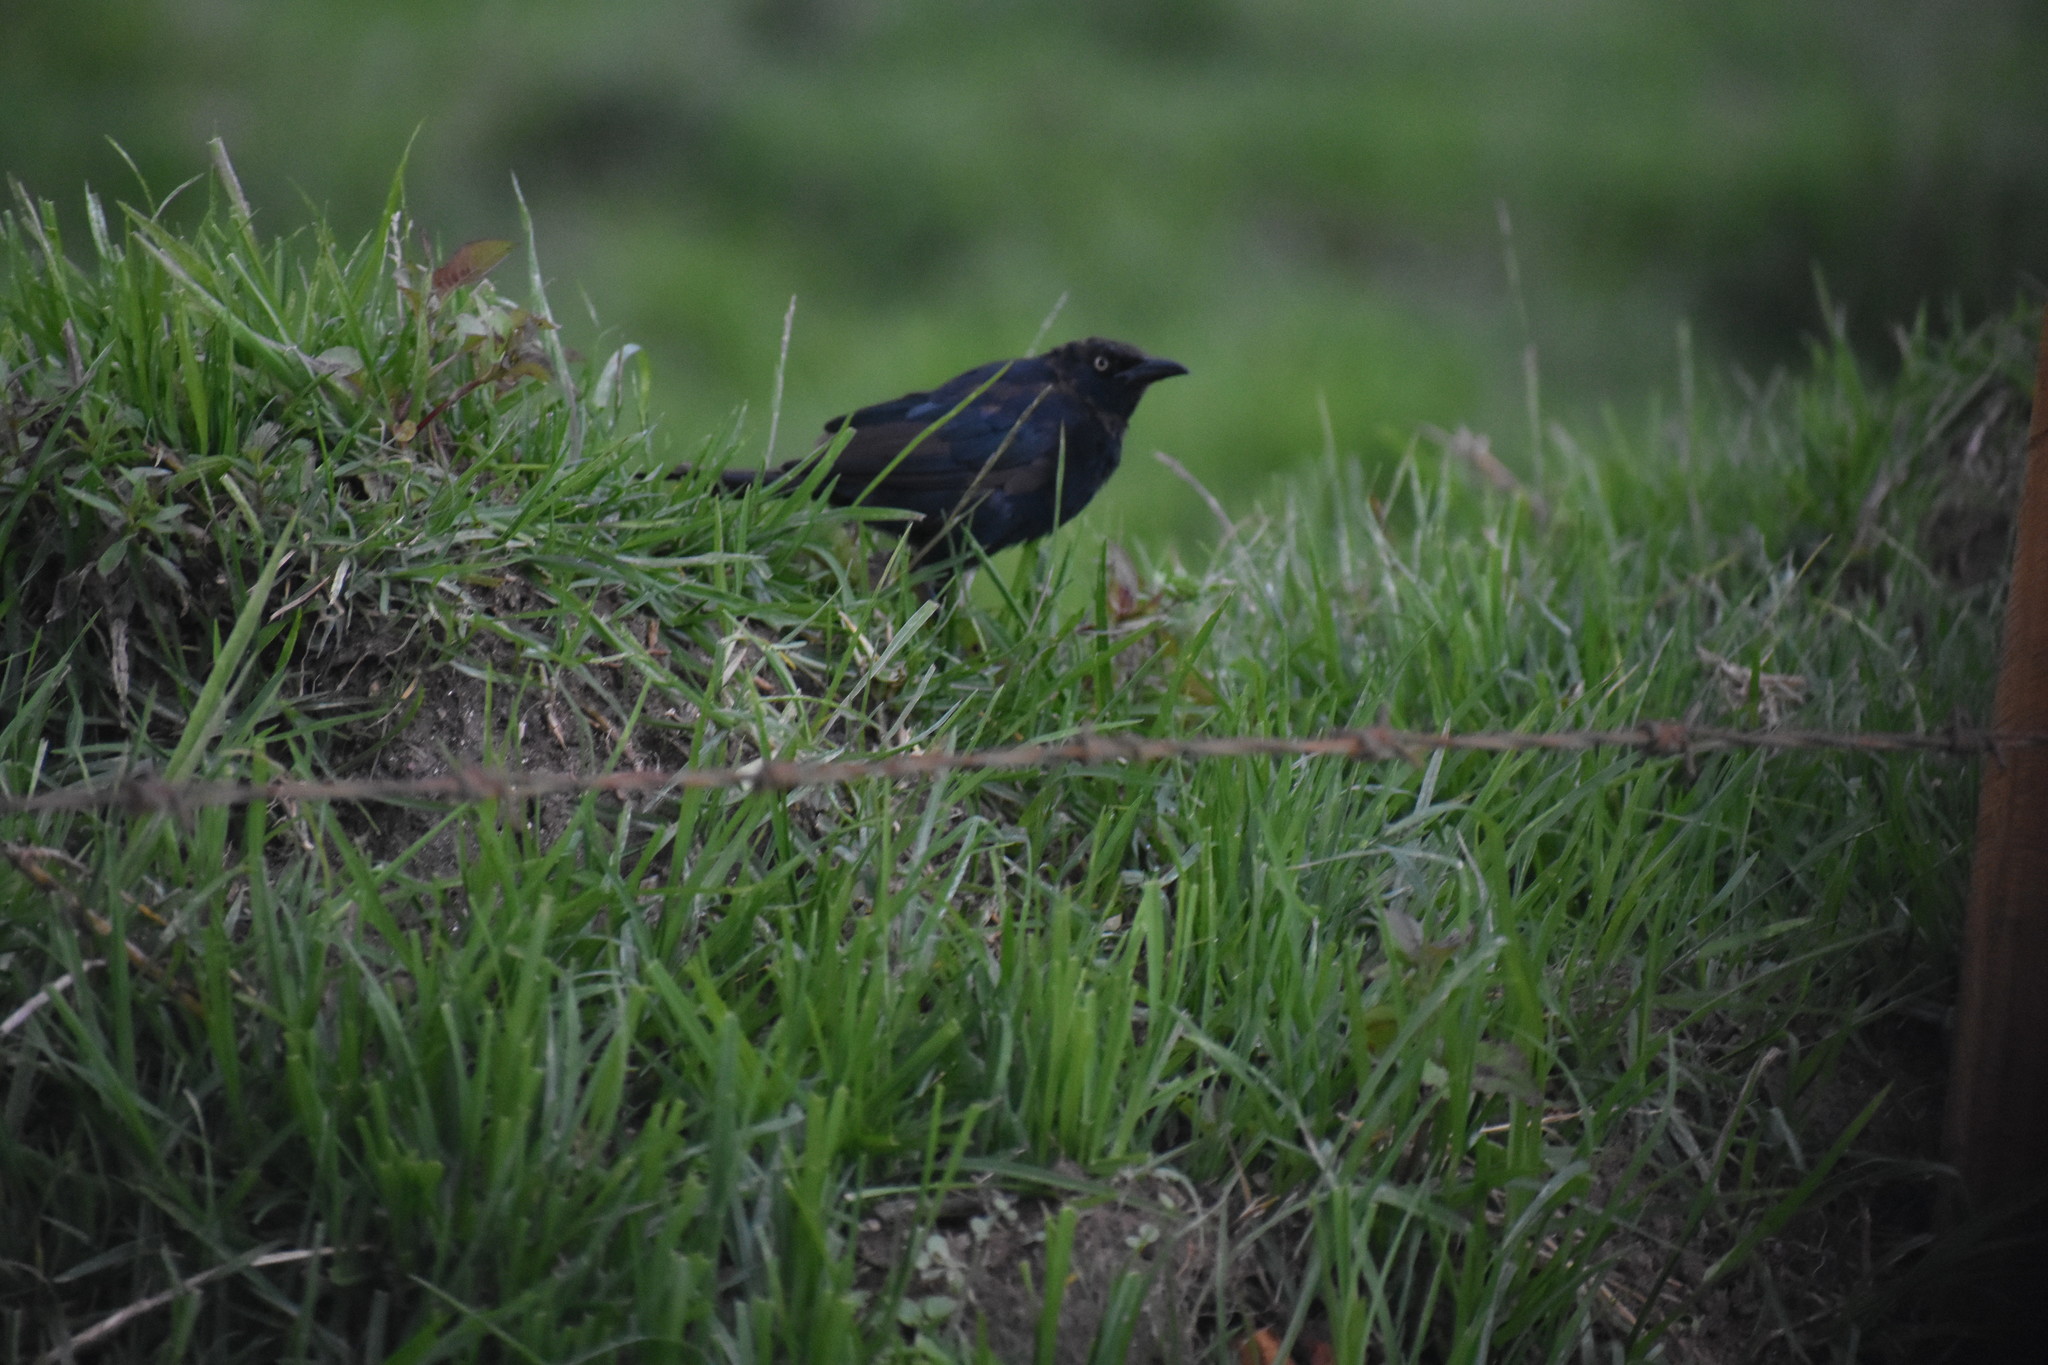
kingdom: Animalia
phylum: Chordata
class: Aves
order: Passeriformes
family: Icteridae
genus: Quiscalus
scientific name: Quiscalus lugubris
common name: Carib grackle
